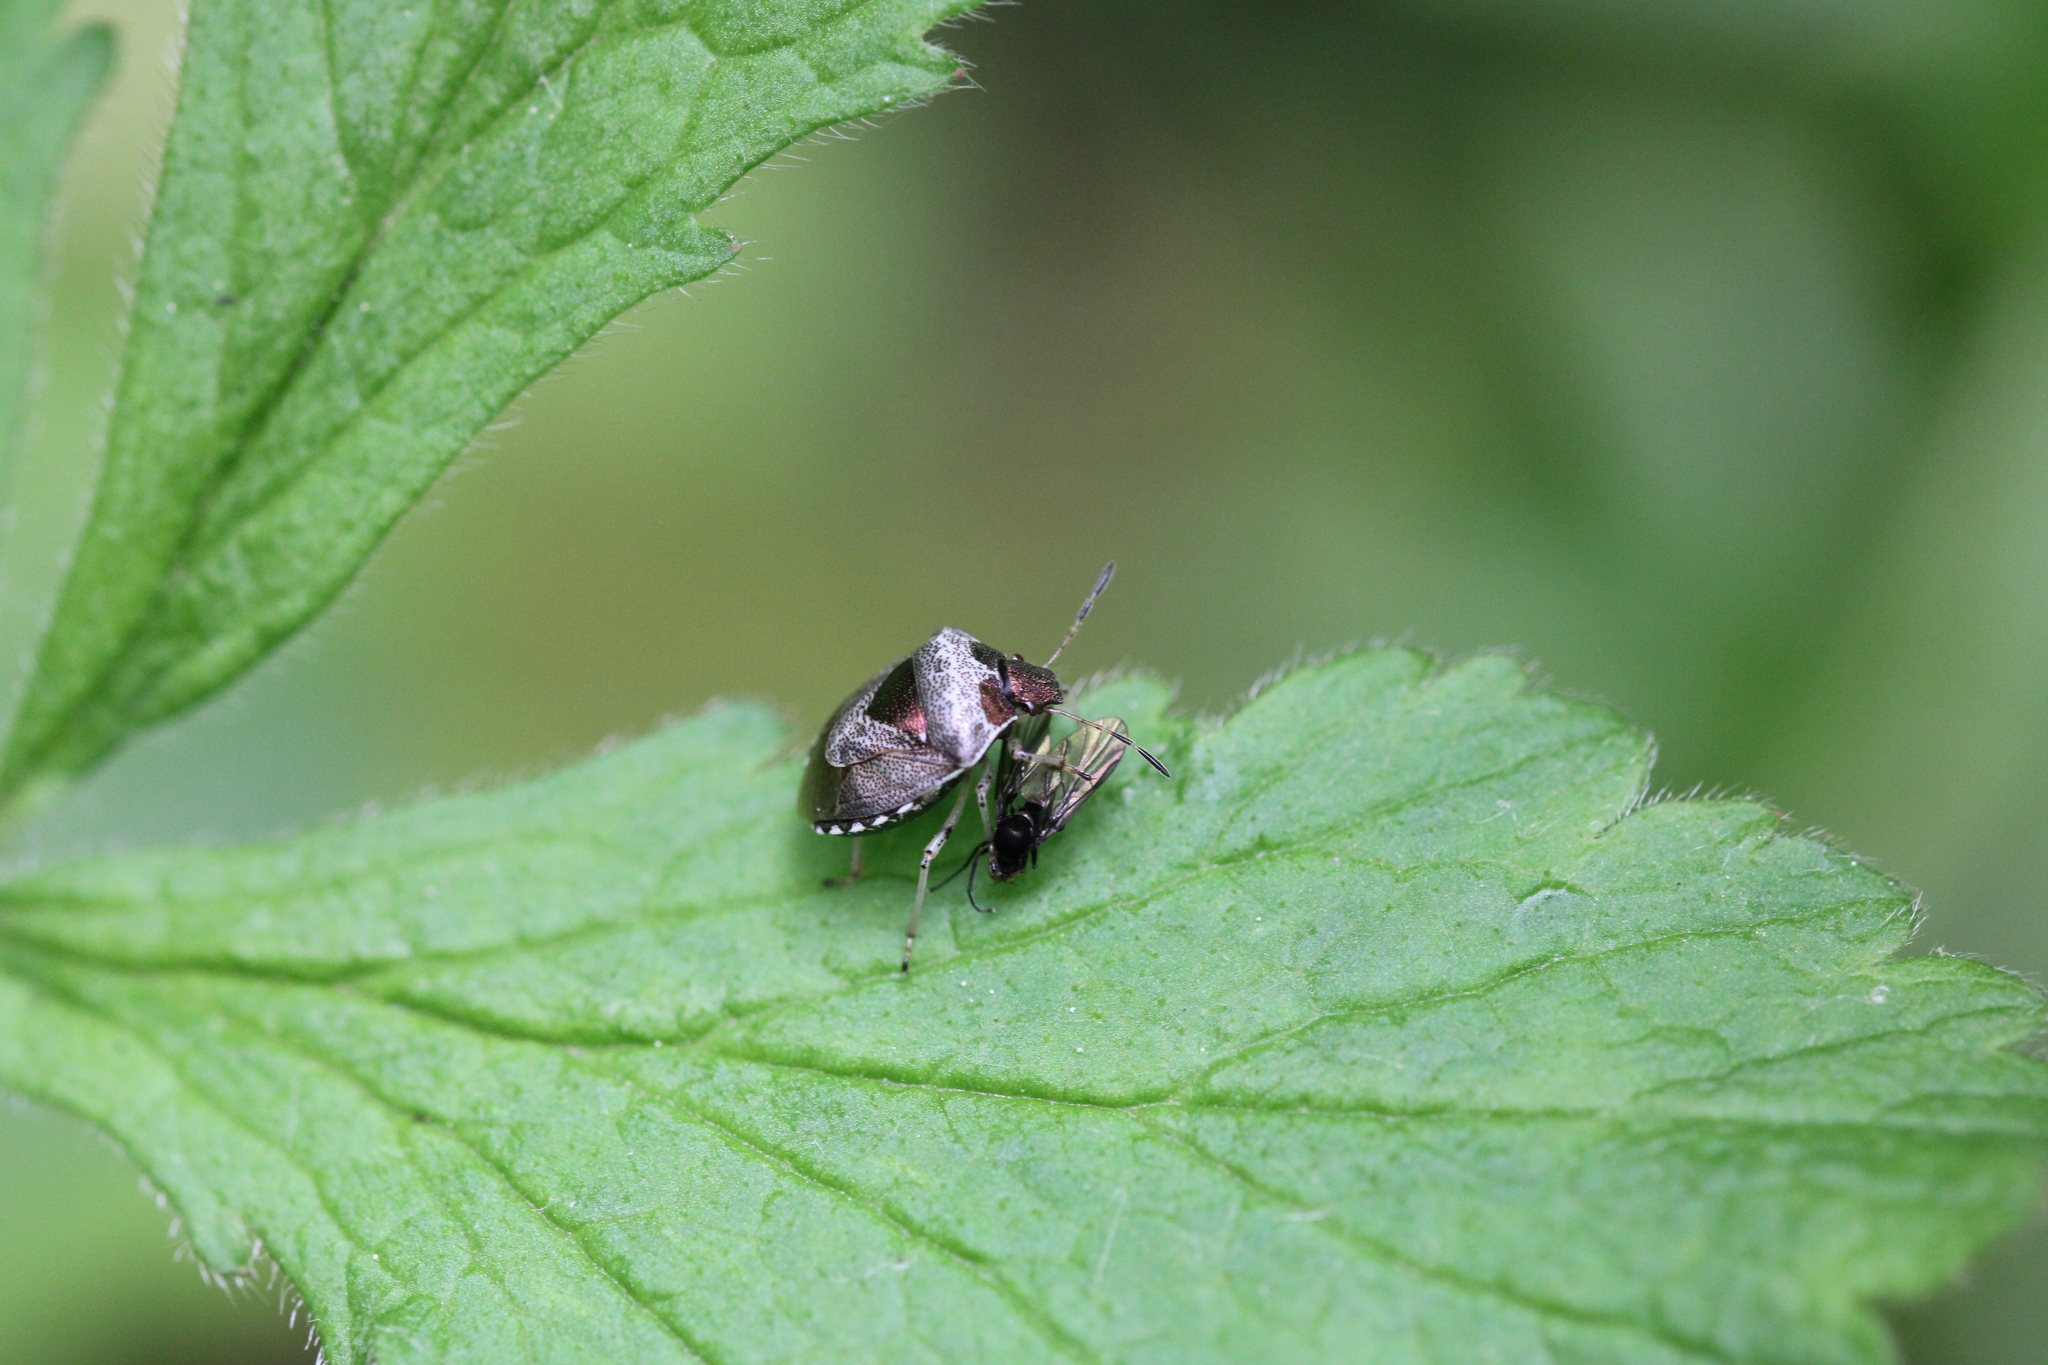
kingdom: Animalia
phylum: Arthropoda
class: Insecta
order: Hemiptera
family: Pentatomidae
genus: Eysarcoris
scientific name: Eysarcoris venustissimus
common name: Woundwort shieldbug
